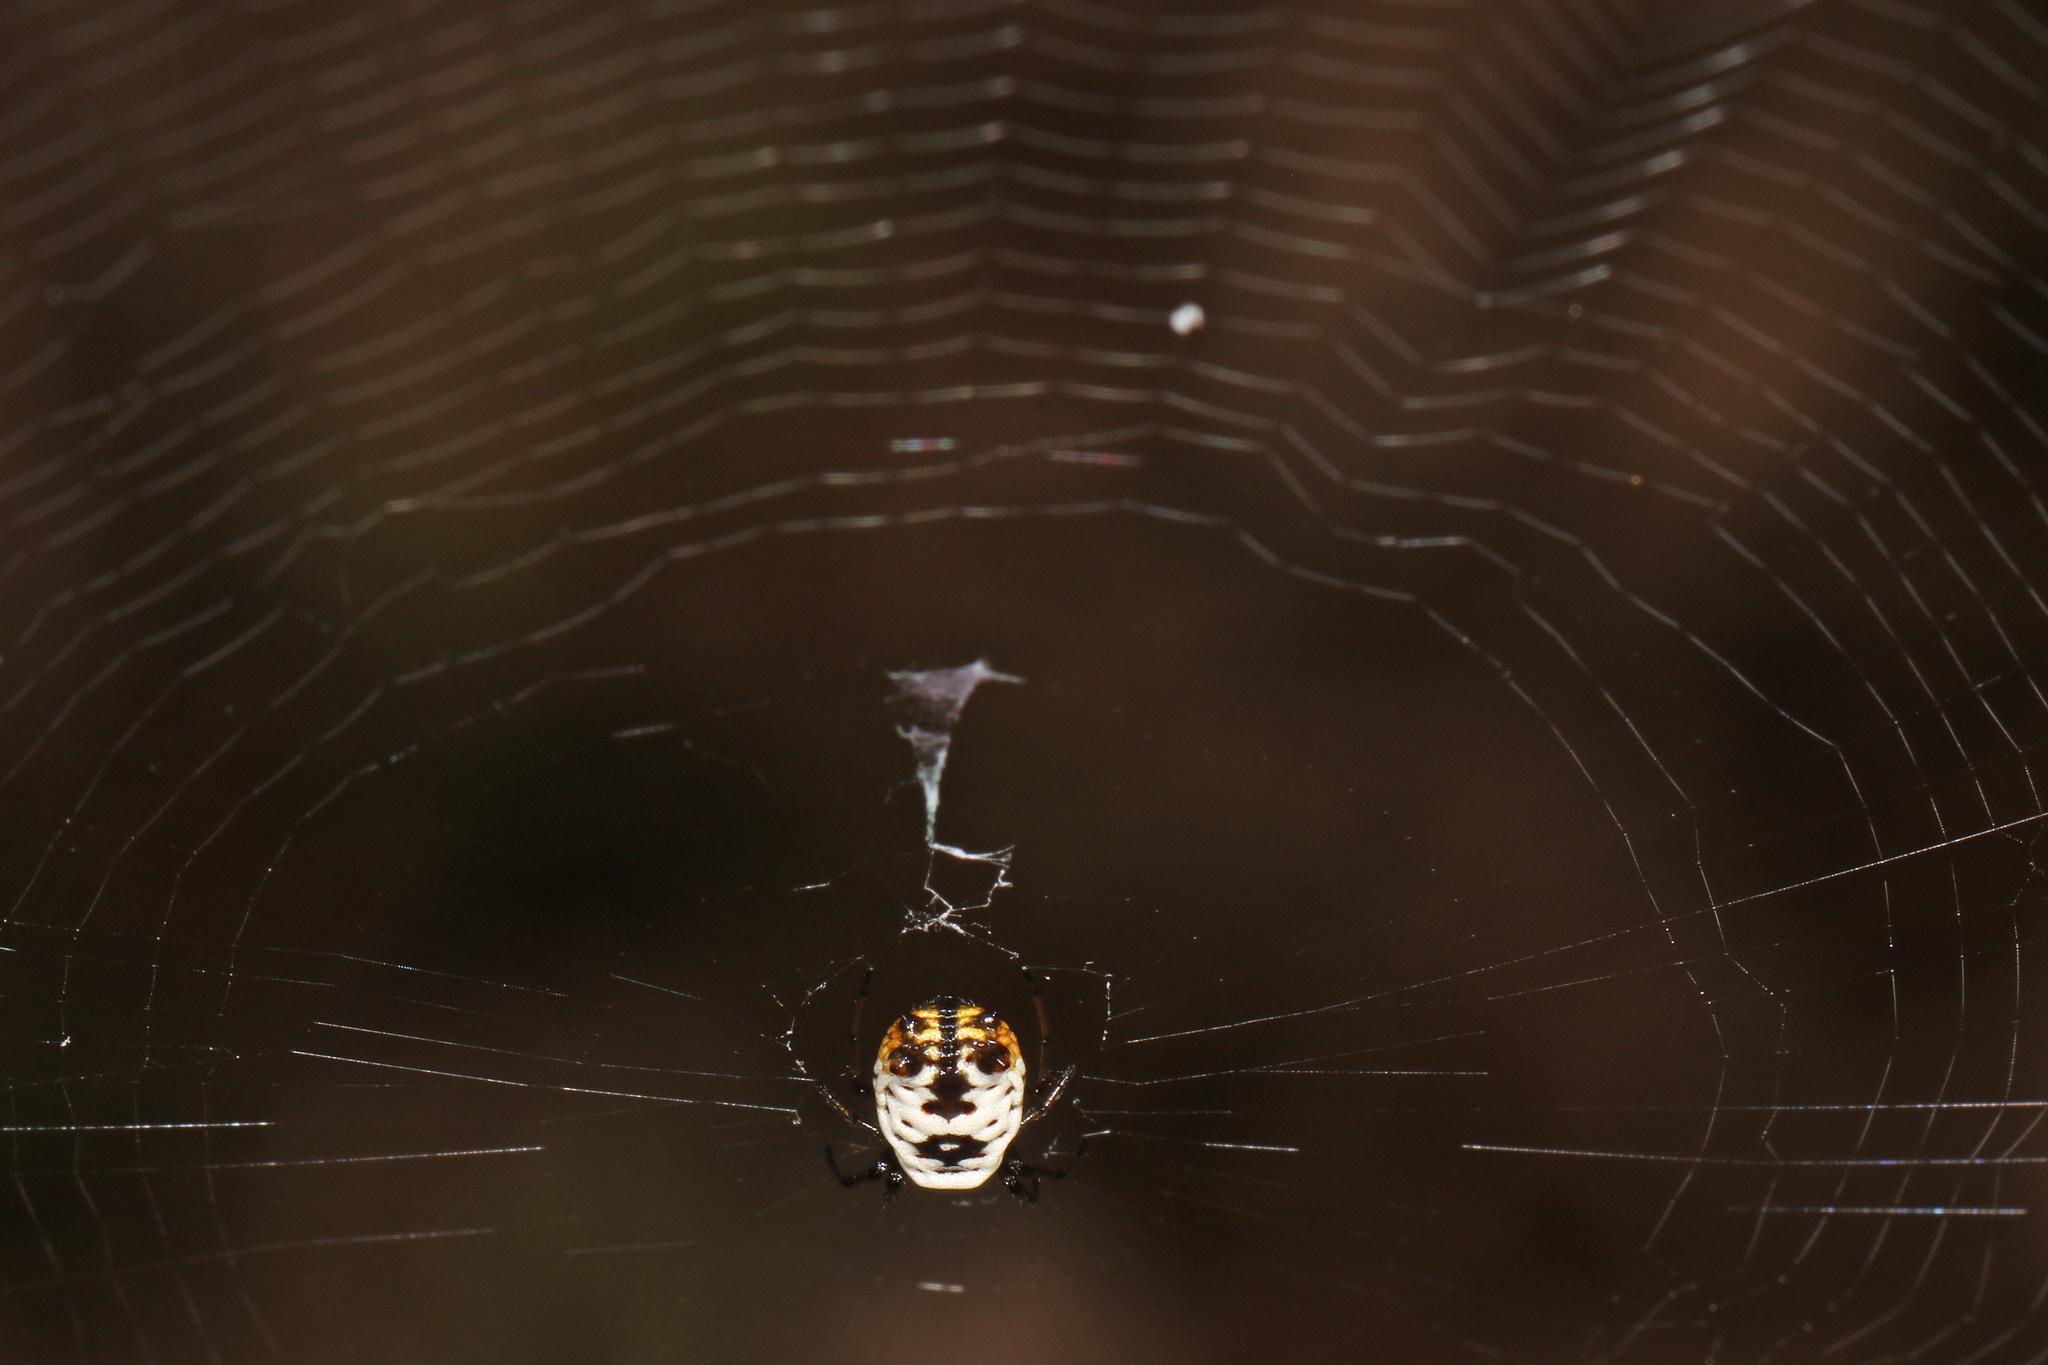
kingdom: Animalia
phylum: Arthropoda
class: Arachnida
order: Araneae
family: Araneidae
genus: Micrathena
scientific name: Micrathena mitrata
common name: Orb weavers
